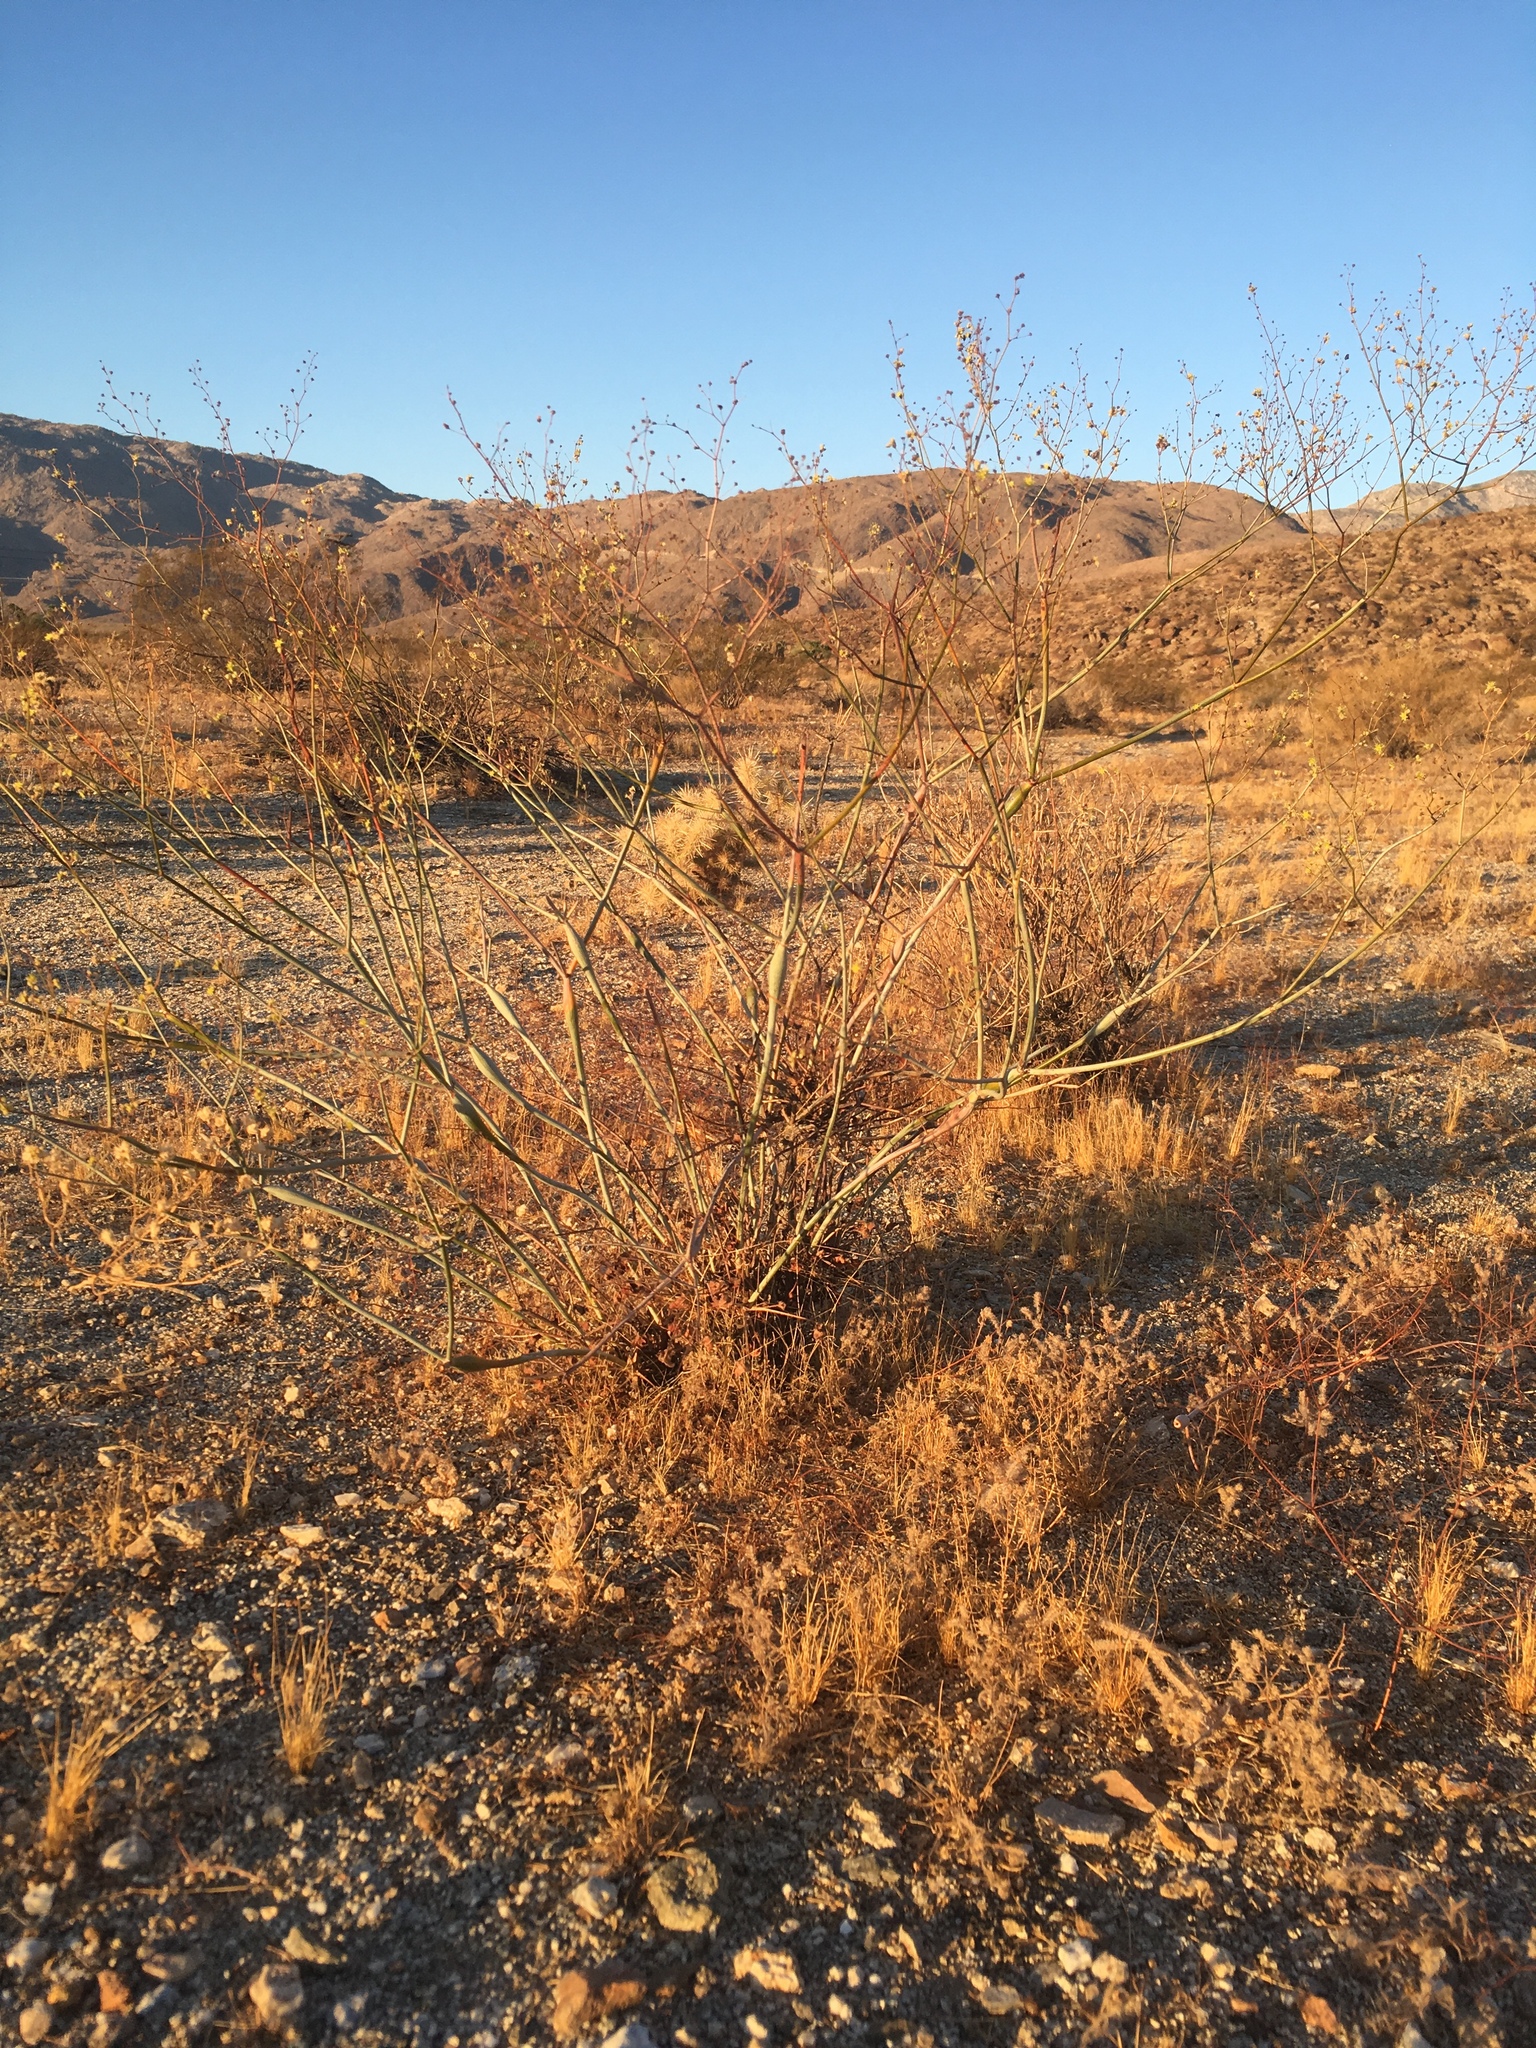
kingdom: Plantae
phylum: Tracheophyta
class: Magnoliopsida
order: Caryophyllales
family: Polygonaceae
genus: Eriogonum
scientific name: Eriogonum inflatum
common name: Desert trumpet
